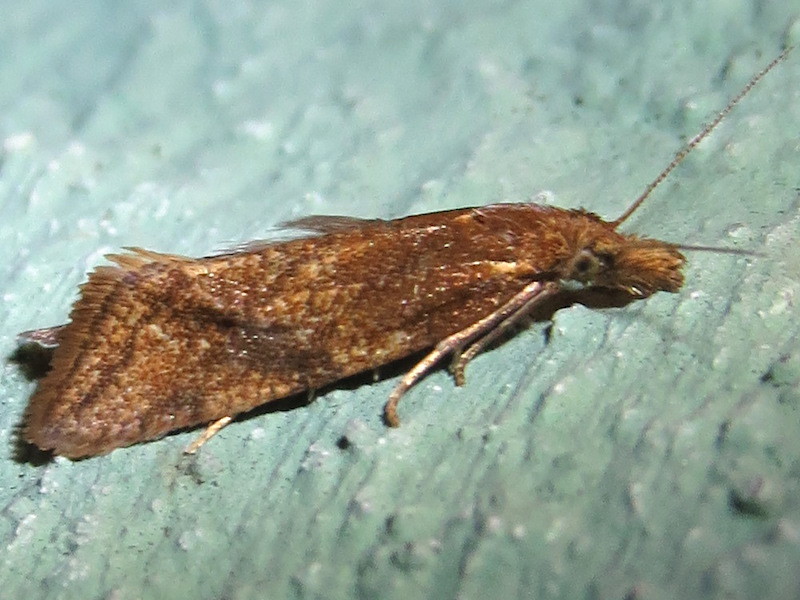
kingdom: Animalia
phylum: Arthropoda
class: Insecta
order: Lepidoptera
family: Tortricidae
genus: Aethes
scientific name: Aethes biscana
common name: Reddish aethes
